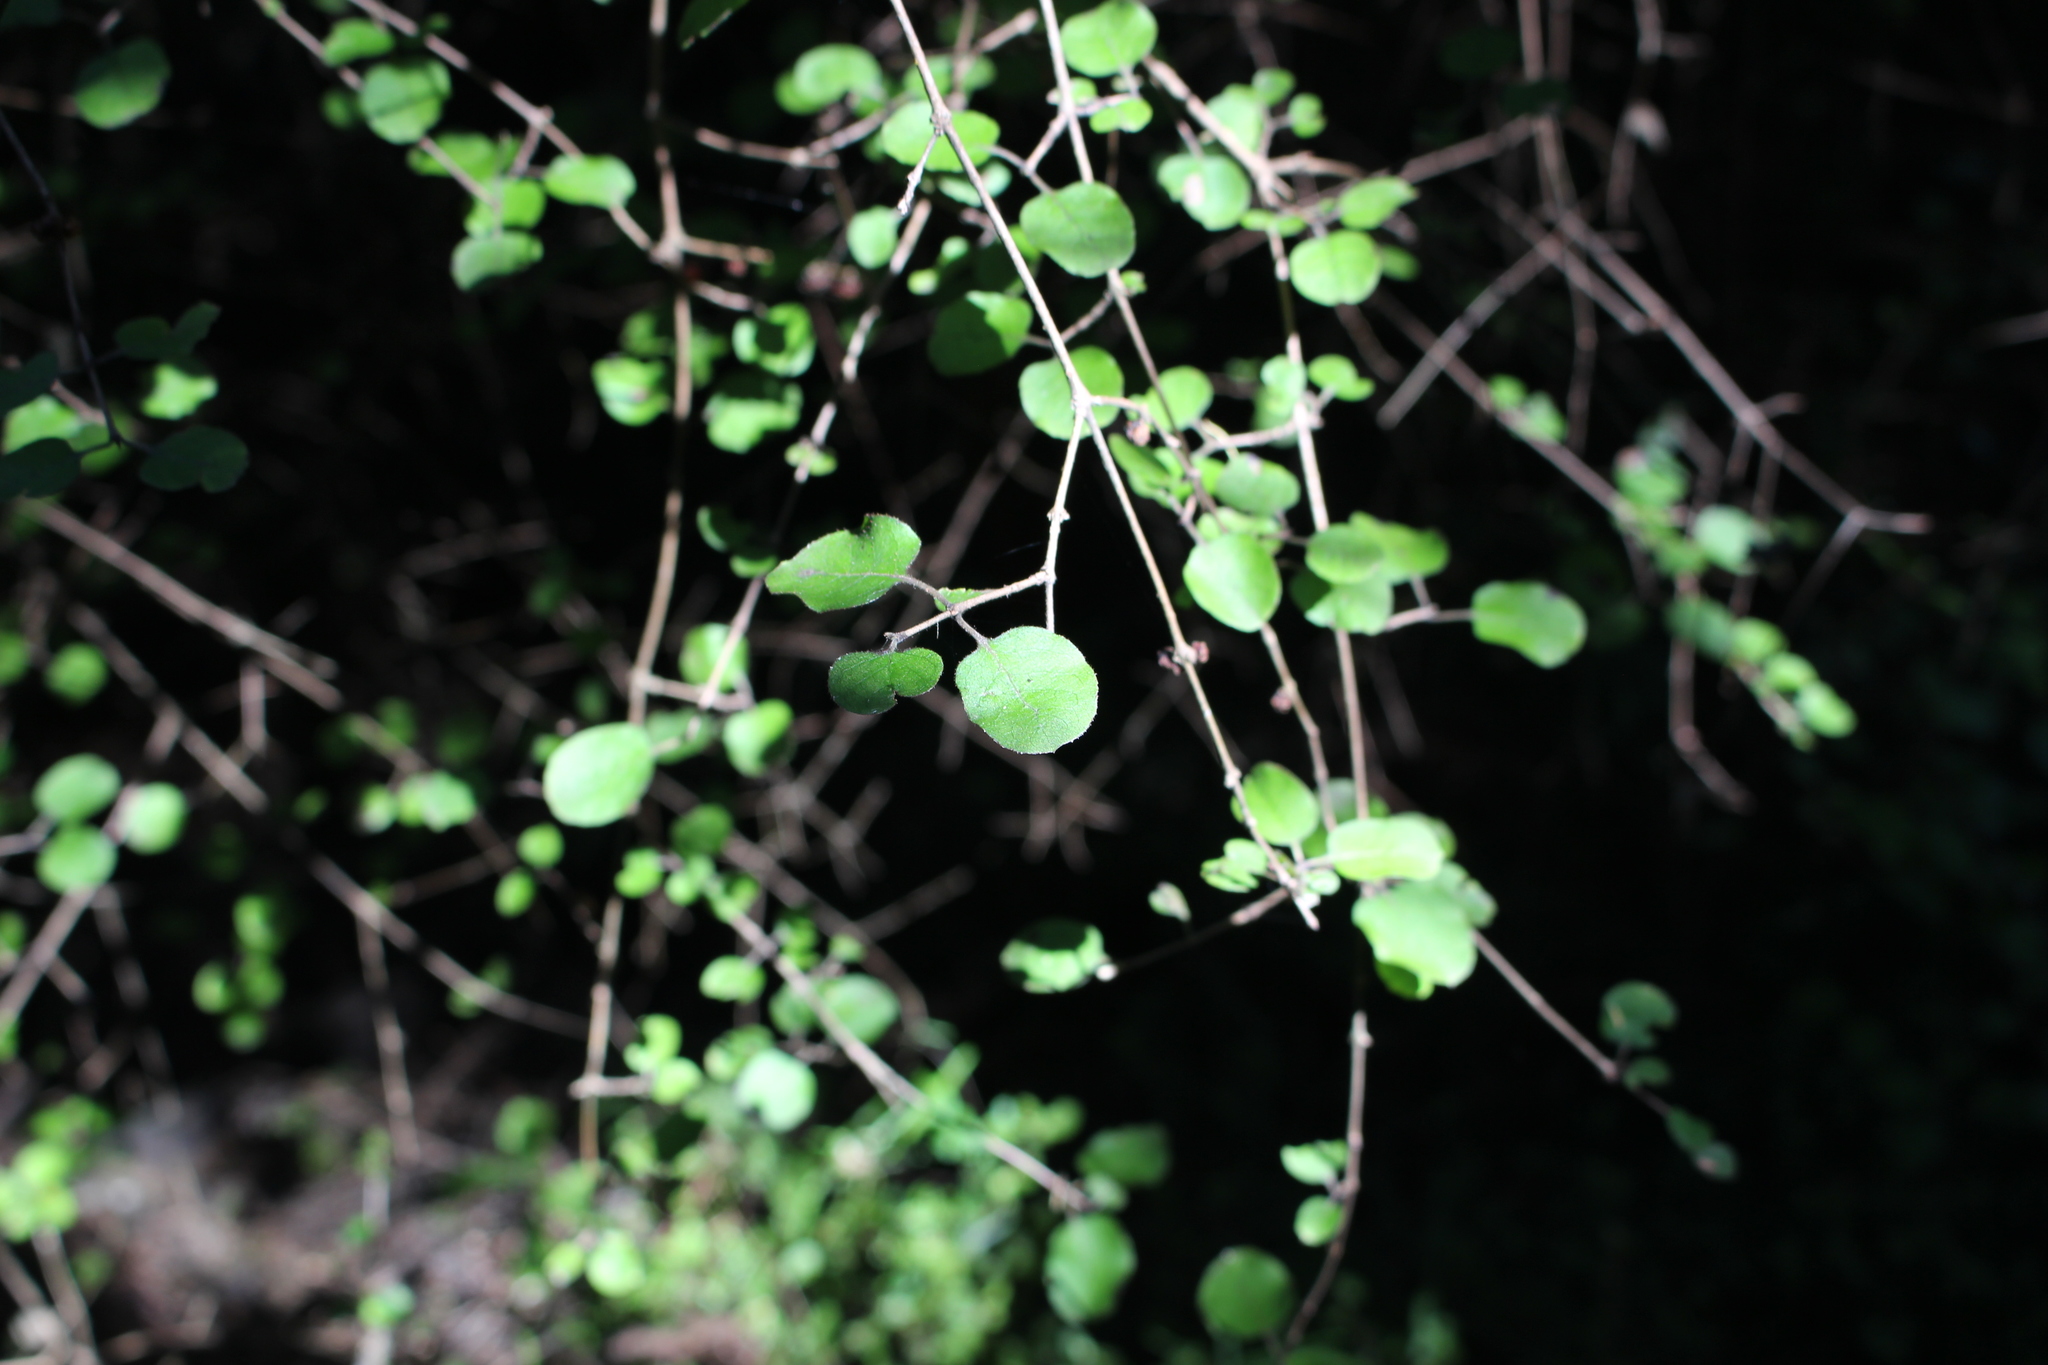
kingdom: Plantae
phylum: Tracheophyta
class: Magnoliopsida
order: Gentianales
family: Rubiaceae
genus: Coprosma
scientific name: Coprosma rotundifolia
